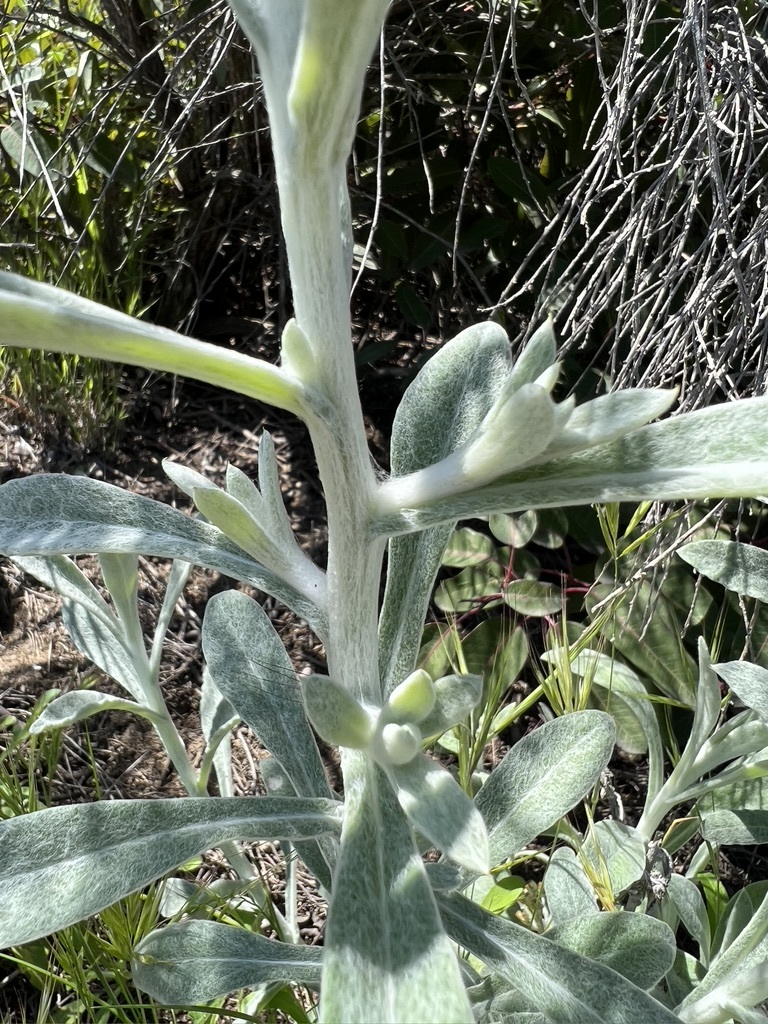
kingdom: Plantae
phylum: Tracheophyta
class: Magnoliopsida
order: Asterales
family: Asteraceae
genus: Pseudognaphalium
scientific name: Pseudognaphalium microcephalum
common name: San diego rabbit-tobacco
